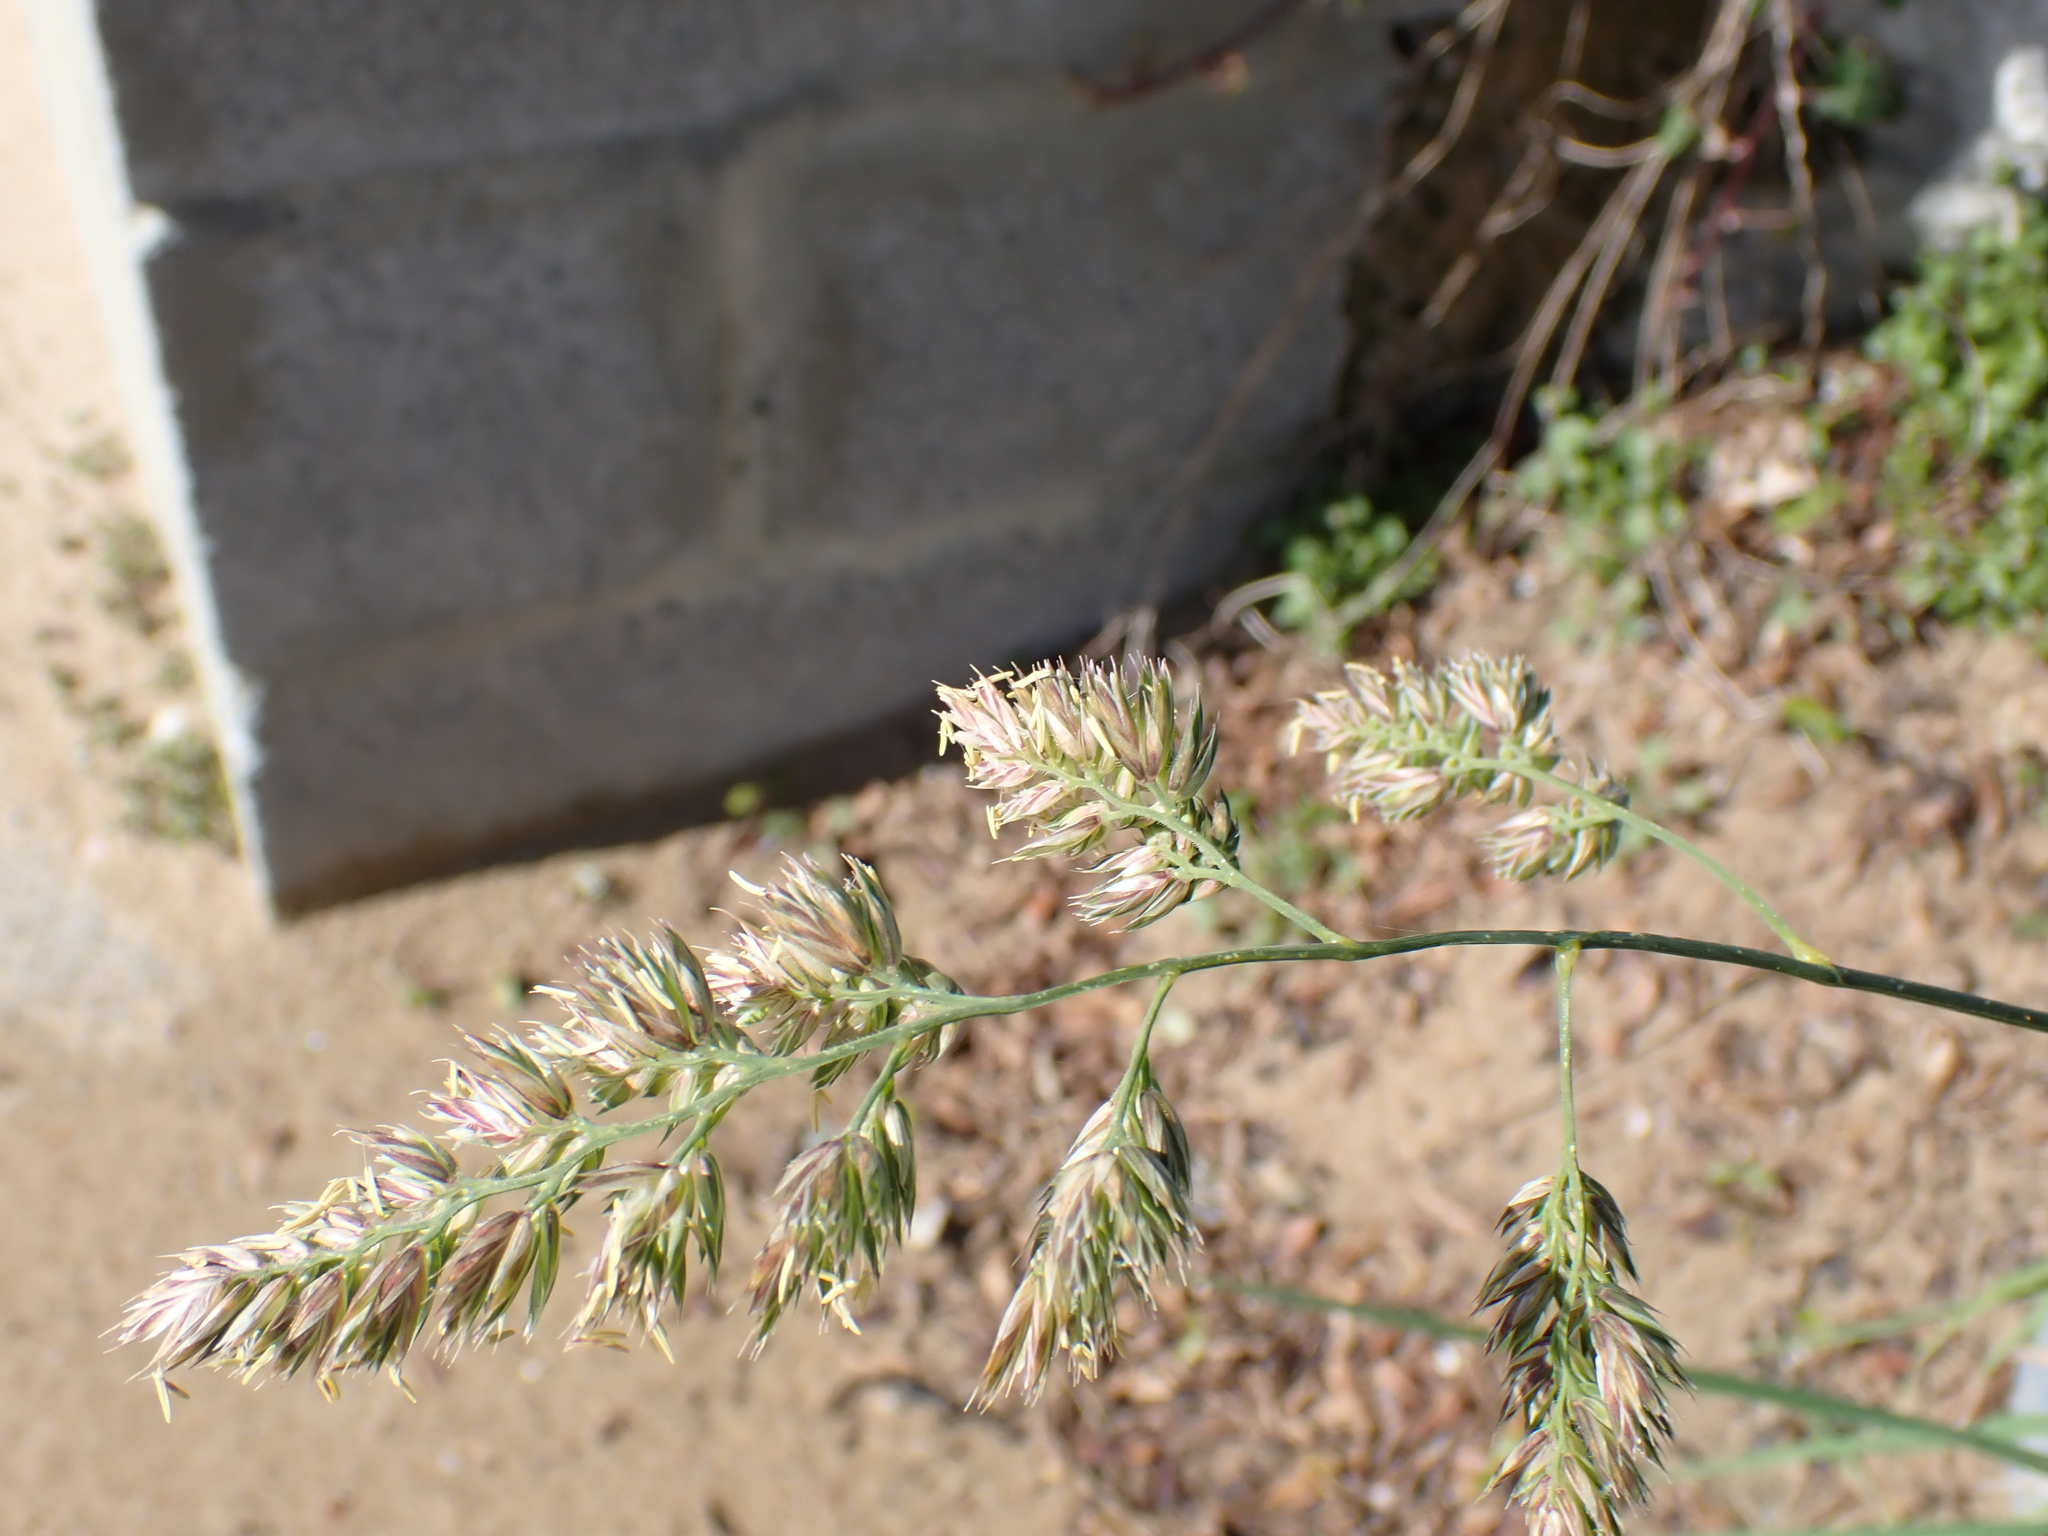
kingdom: Plantae
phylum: Tracheophyta
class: Liliopsida
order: Poales
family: Poaceae
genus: Dactylis
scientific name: Dactylis glomerata
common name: Orchardgrass
